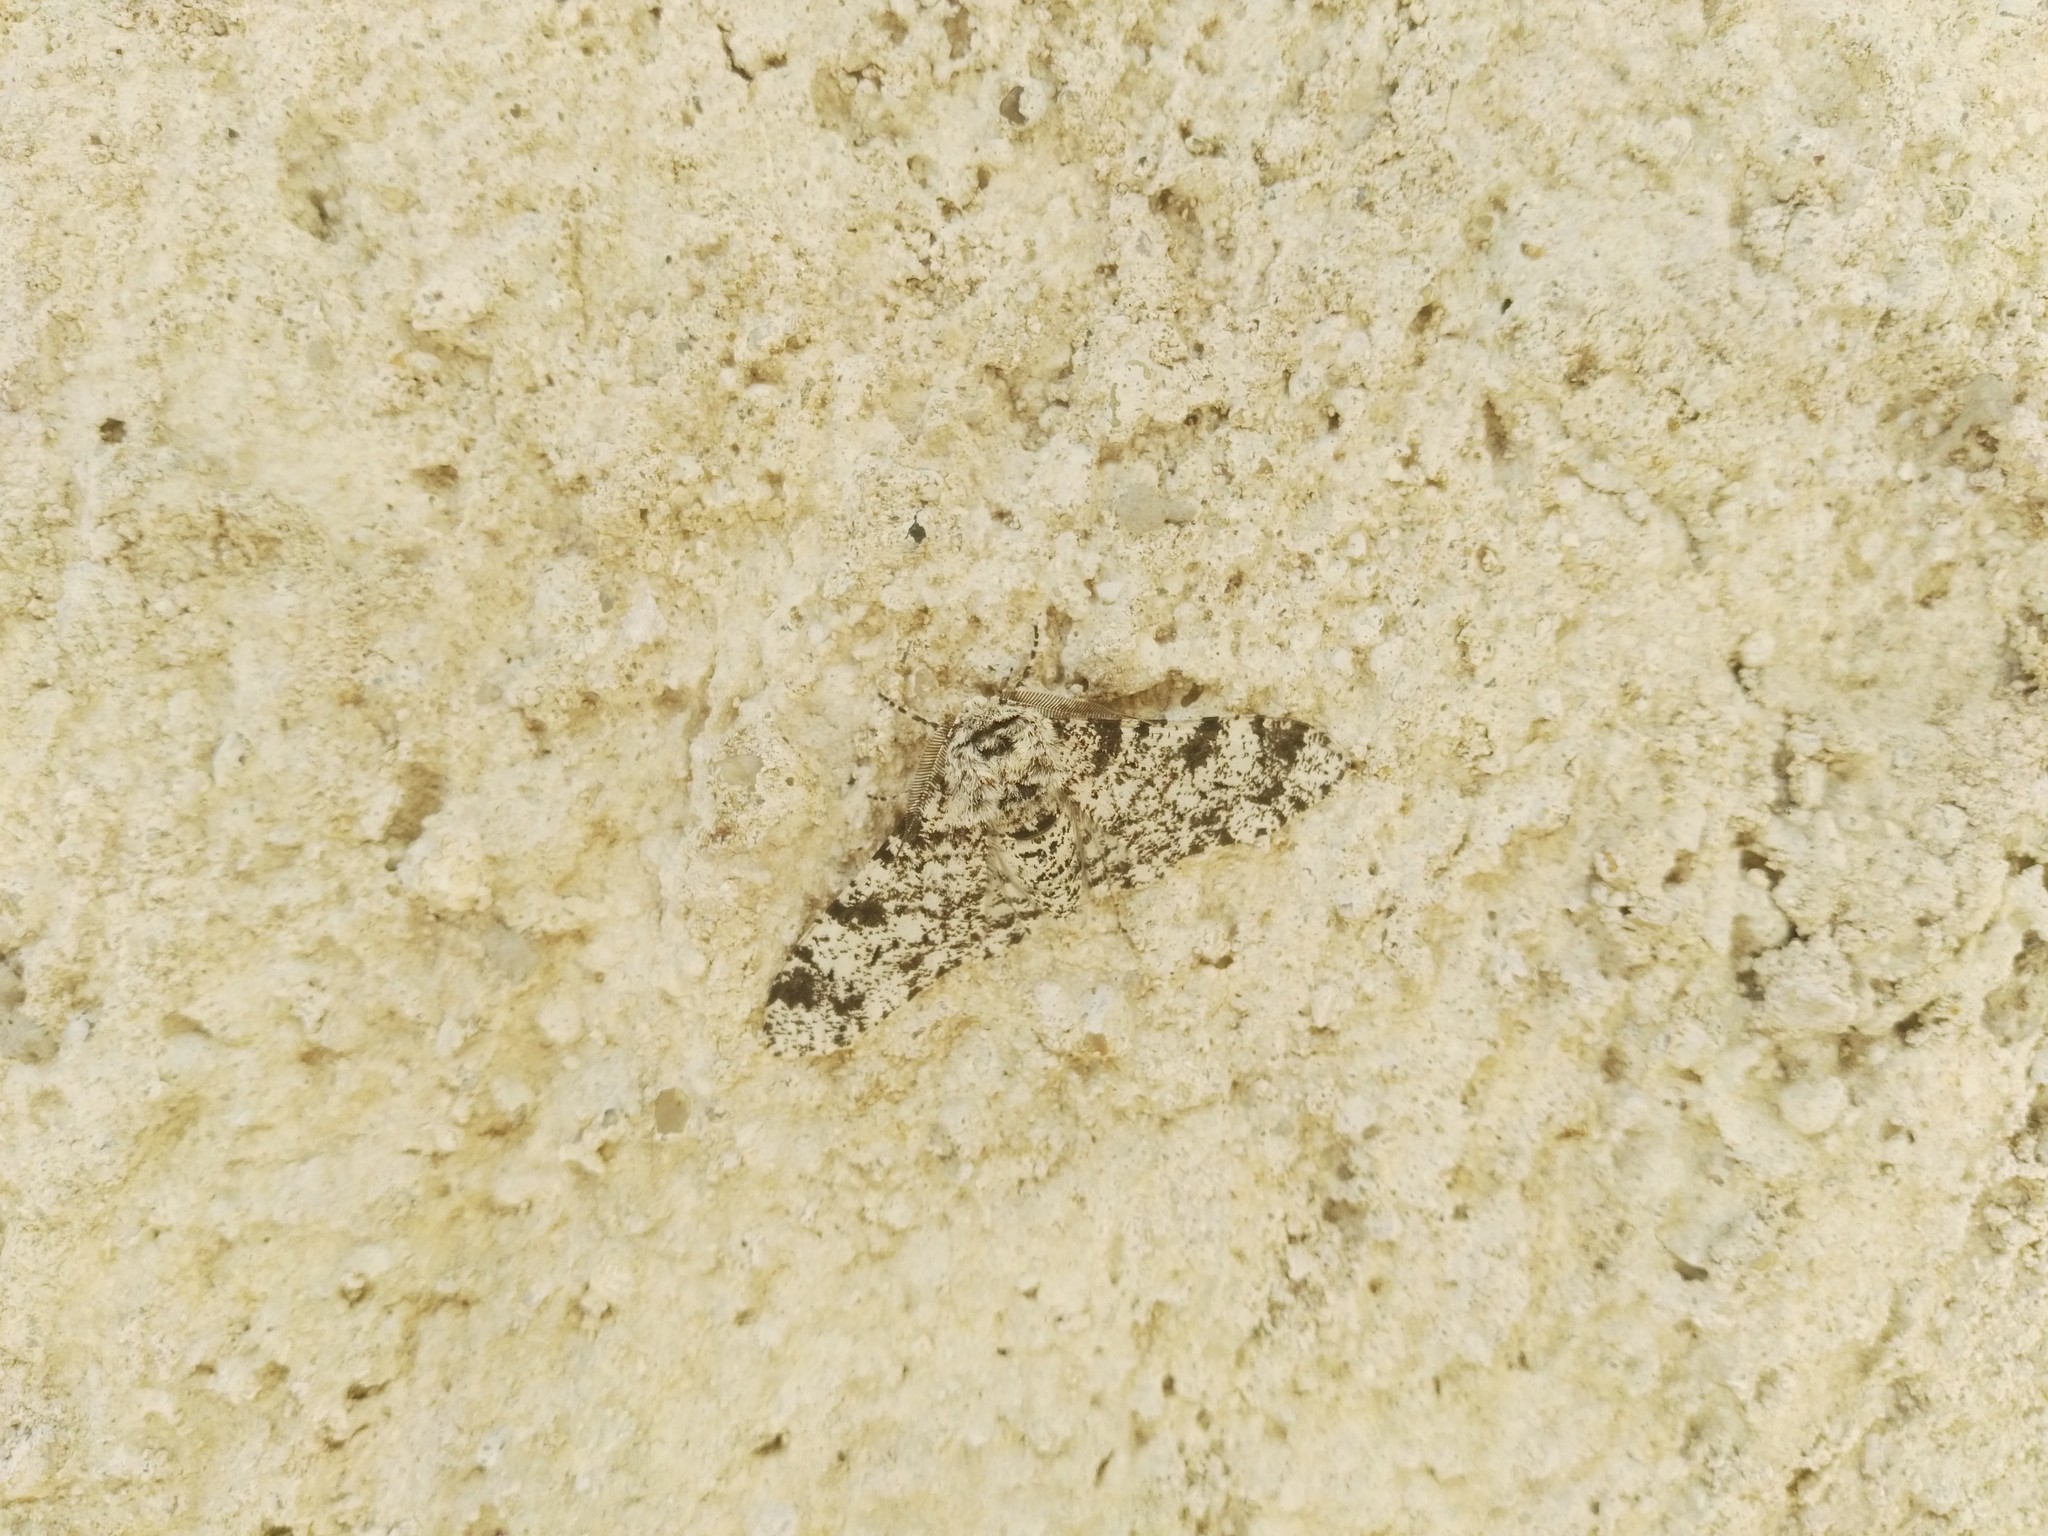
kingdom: Animalia
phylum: Arthropoda
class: Insecta
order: Lepidoptera
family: Geometridae
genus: Biston
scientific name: Biston betularia
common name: Peppered moth
